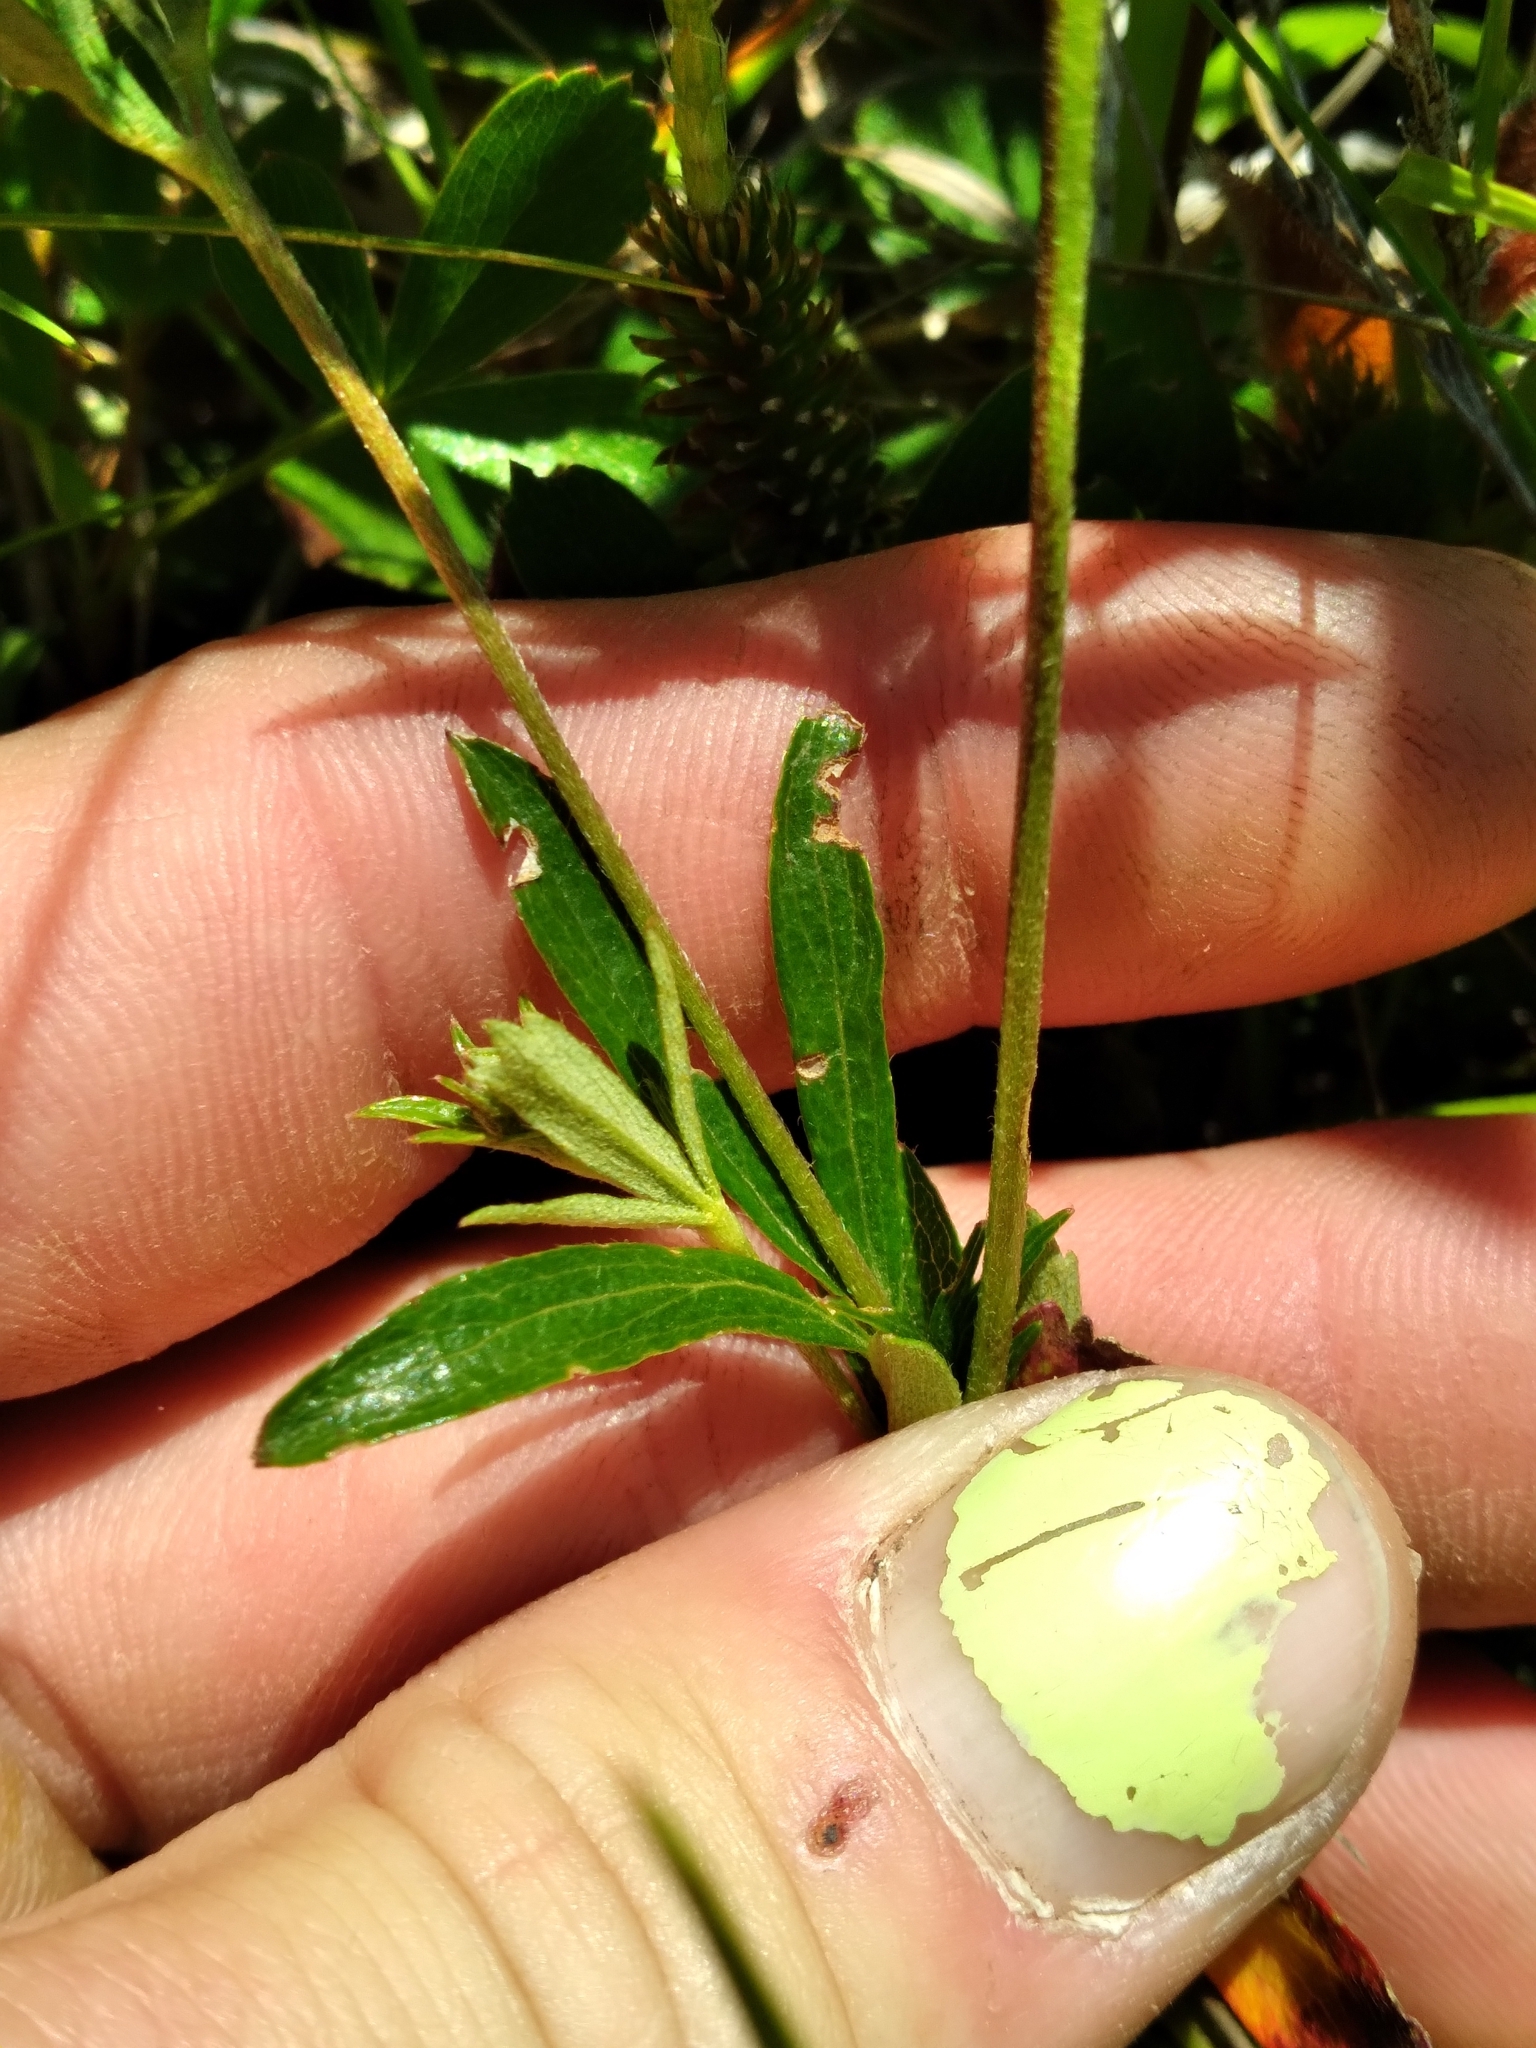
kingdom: Plantae
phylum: Tracheophyta
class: Magnoliopsida
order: Rosales
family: Rosaceae
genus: Sibbaldia
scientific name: Sibbaldia tridentata
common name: Three-toothed cinquefoil
